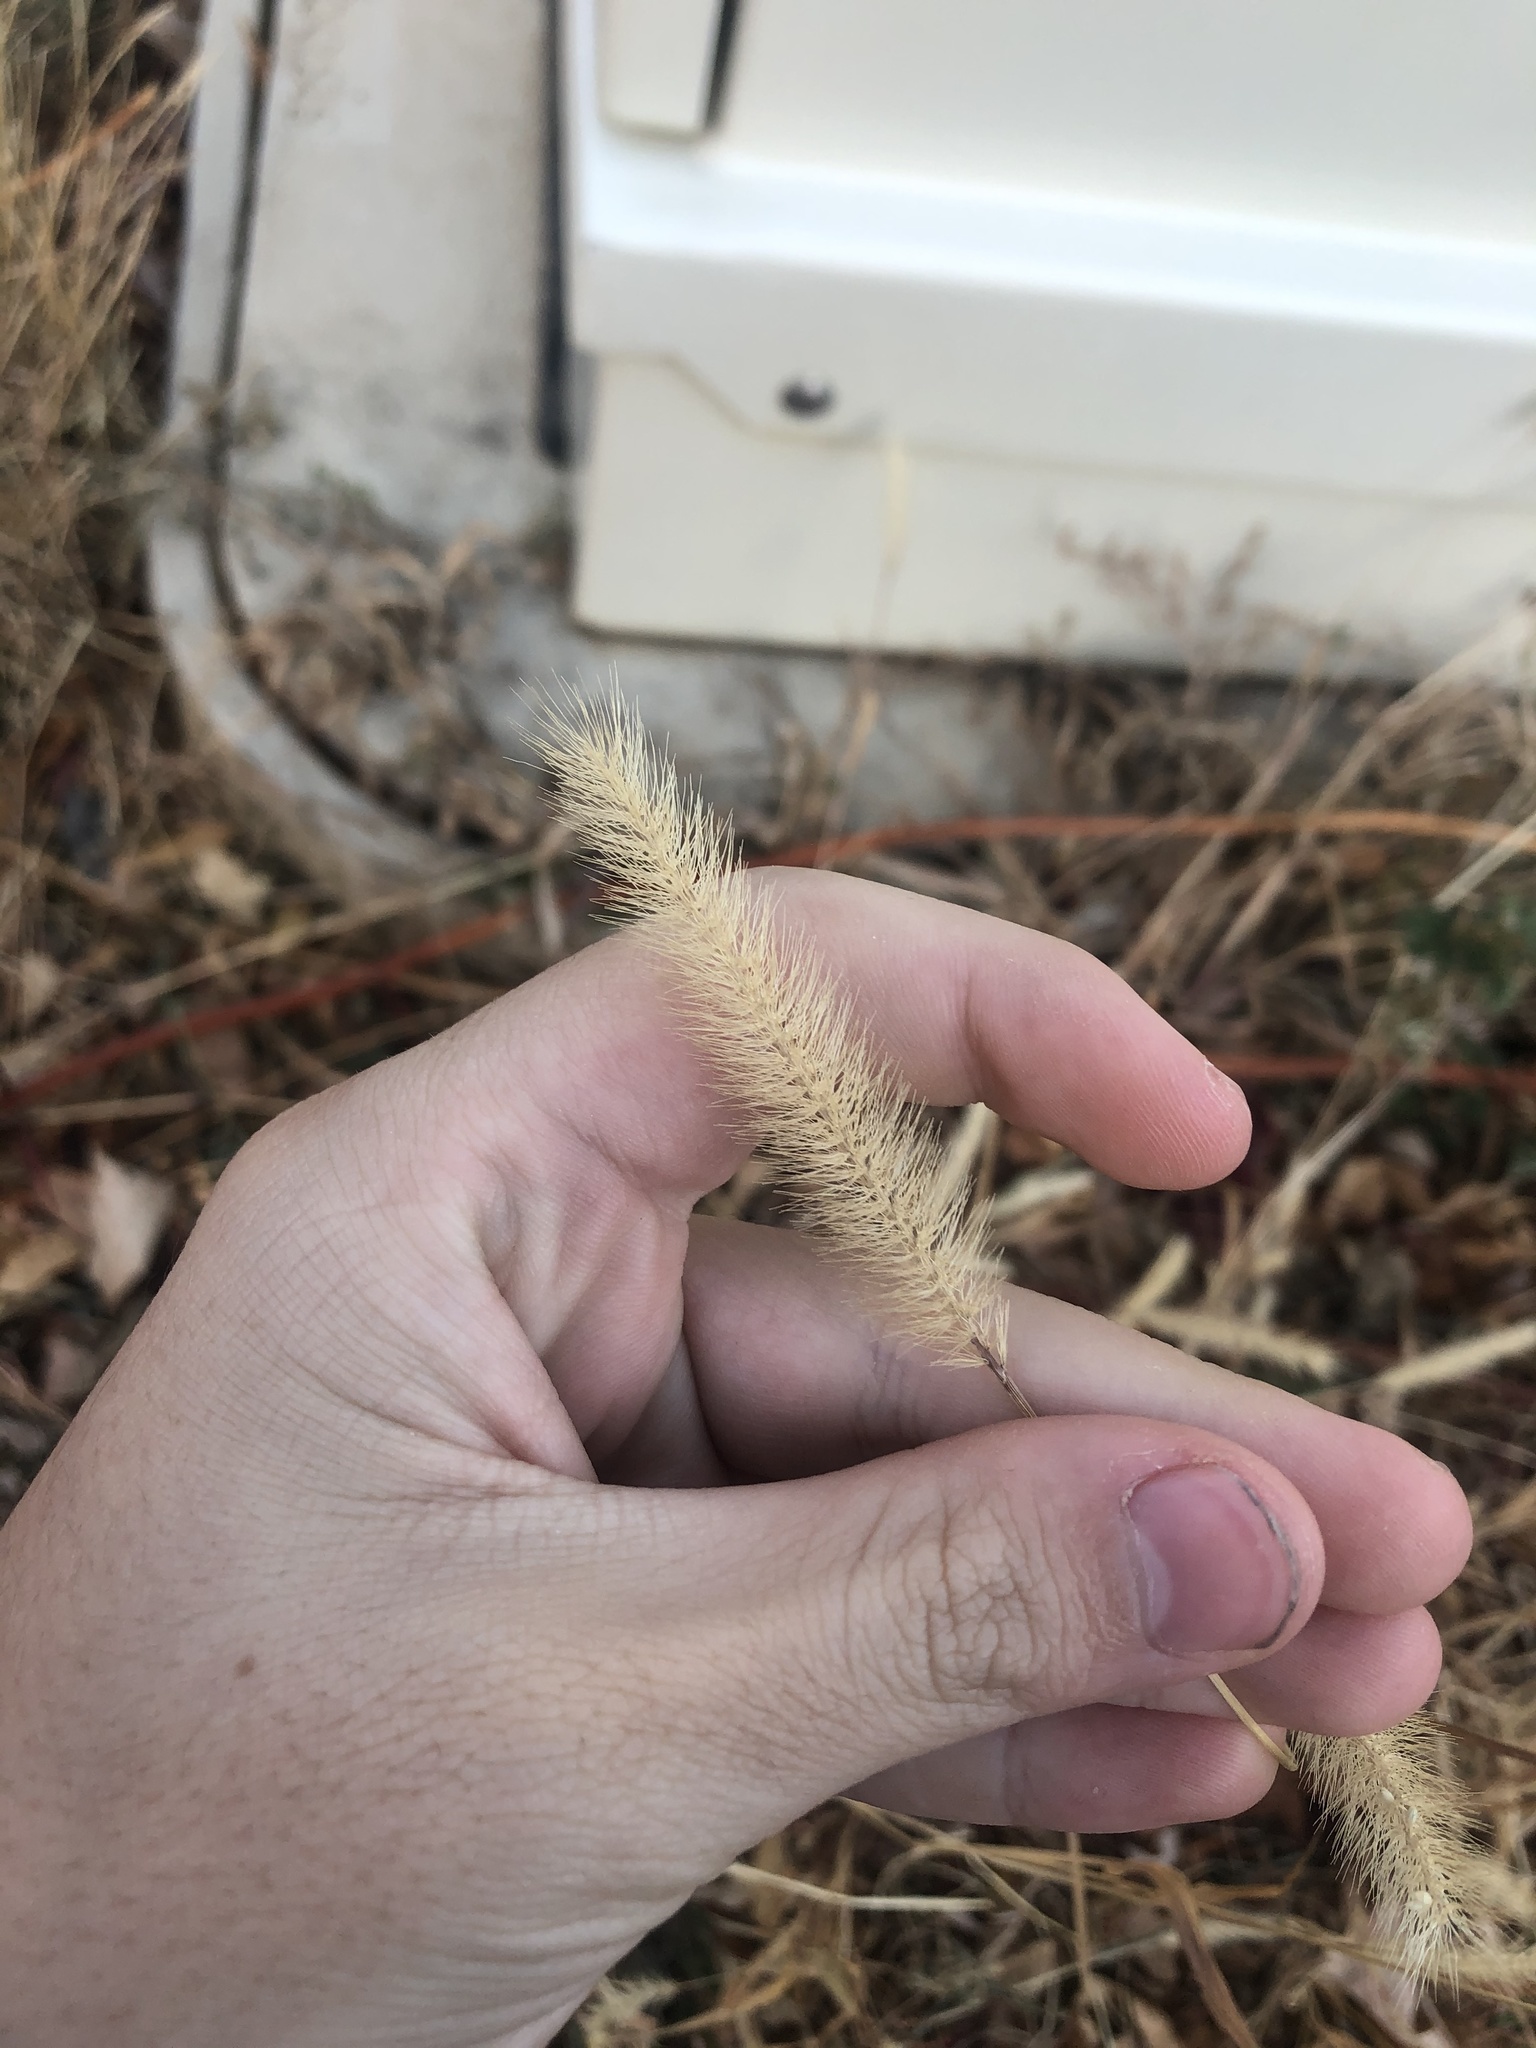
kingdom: Plantae
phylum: Tracheophyta
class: Liliopsida
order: Poales
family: Poaceae
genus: Setaria
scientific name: Setaria viridis
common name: Green bristlegrass
